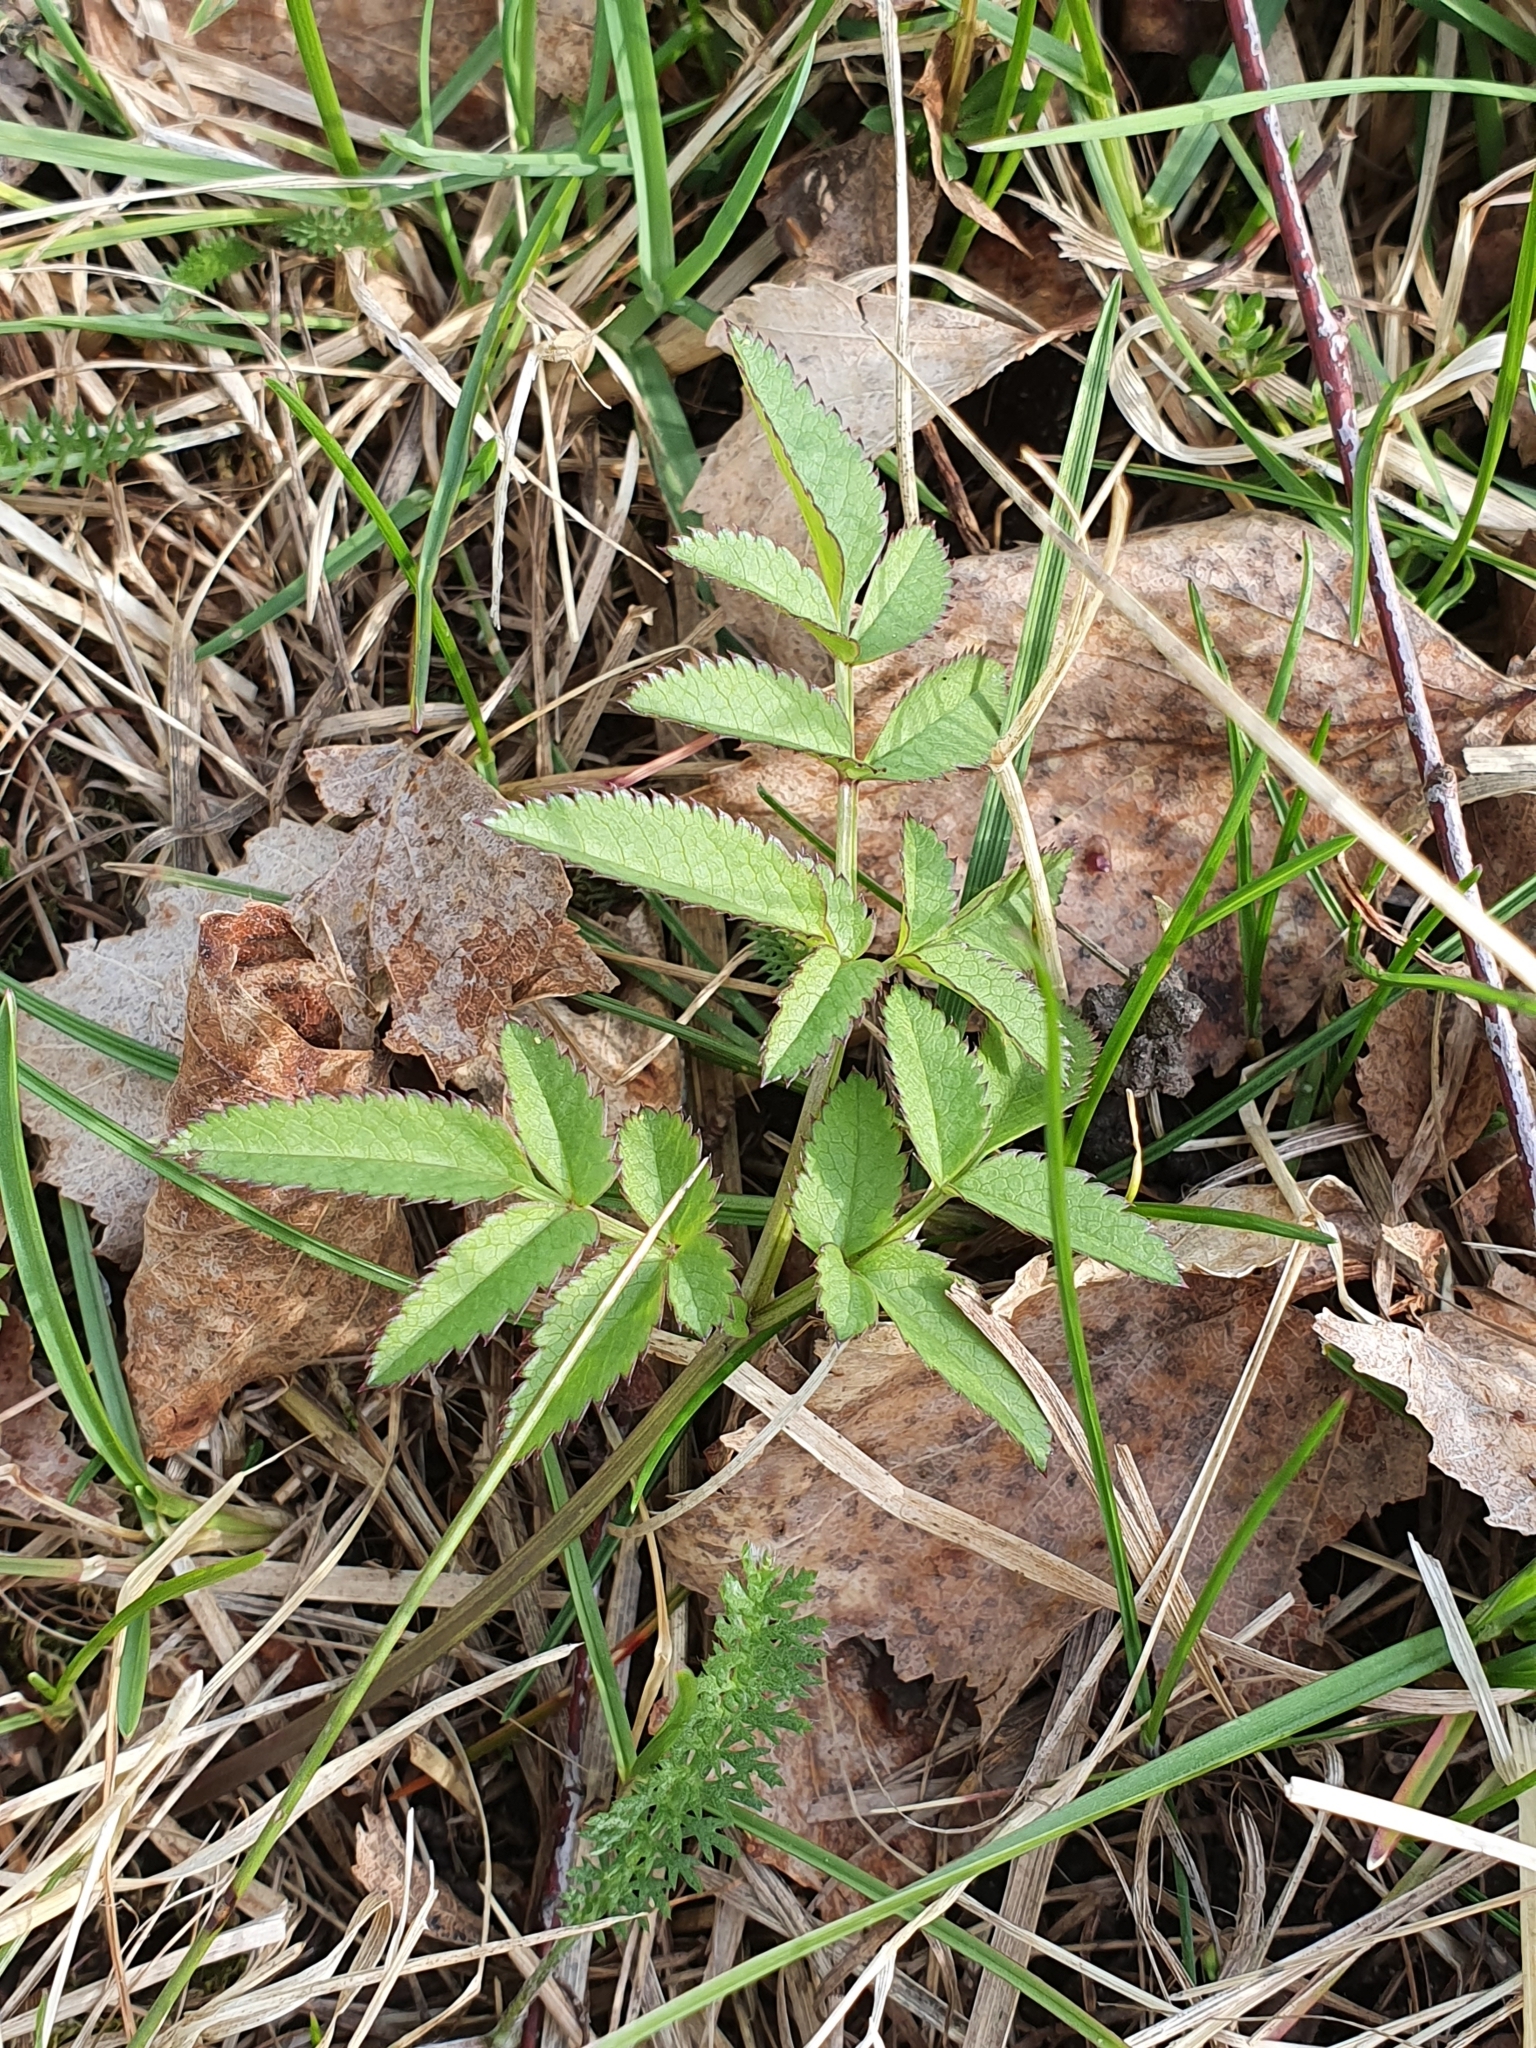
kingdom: Plantae
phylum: Tracheophyta
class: Magnoliopsida
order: Apiales
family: Apiaceae
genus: Angelica
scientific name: Angelica sylvestris
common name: Wild angelica
